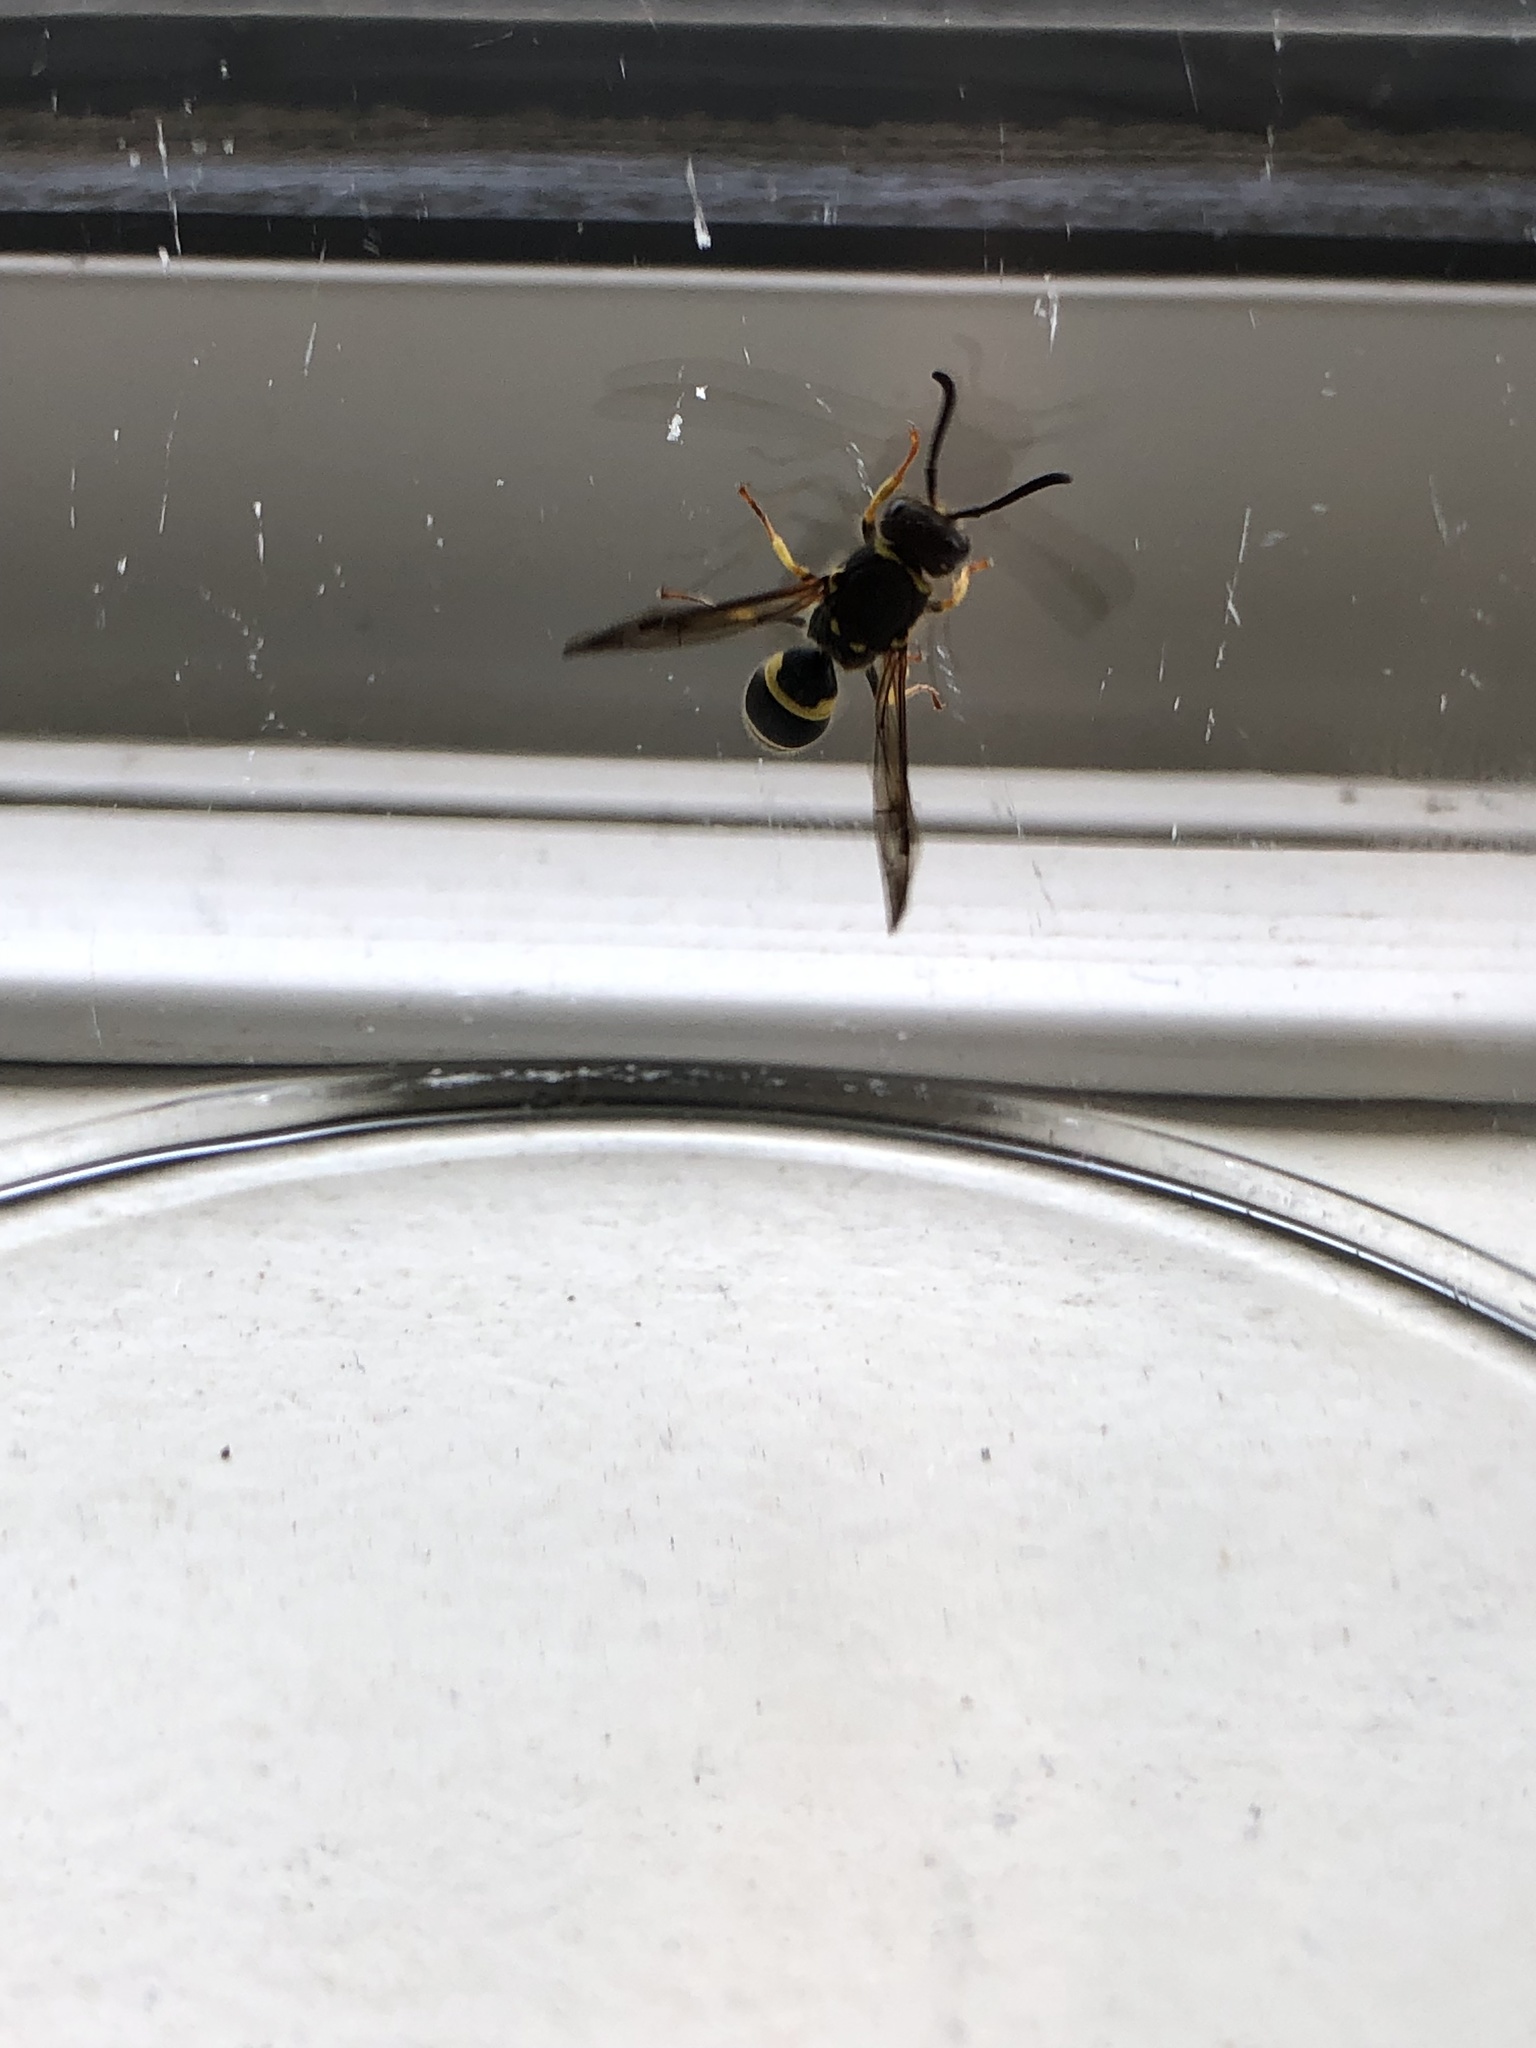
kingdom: Animalia
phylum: Arthropoda
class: Insecta
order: Hymenoptera
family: Vespidae
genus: Ancistrocerus
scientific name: Ancistrocerus gazella
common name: European tube wasp
